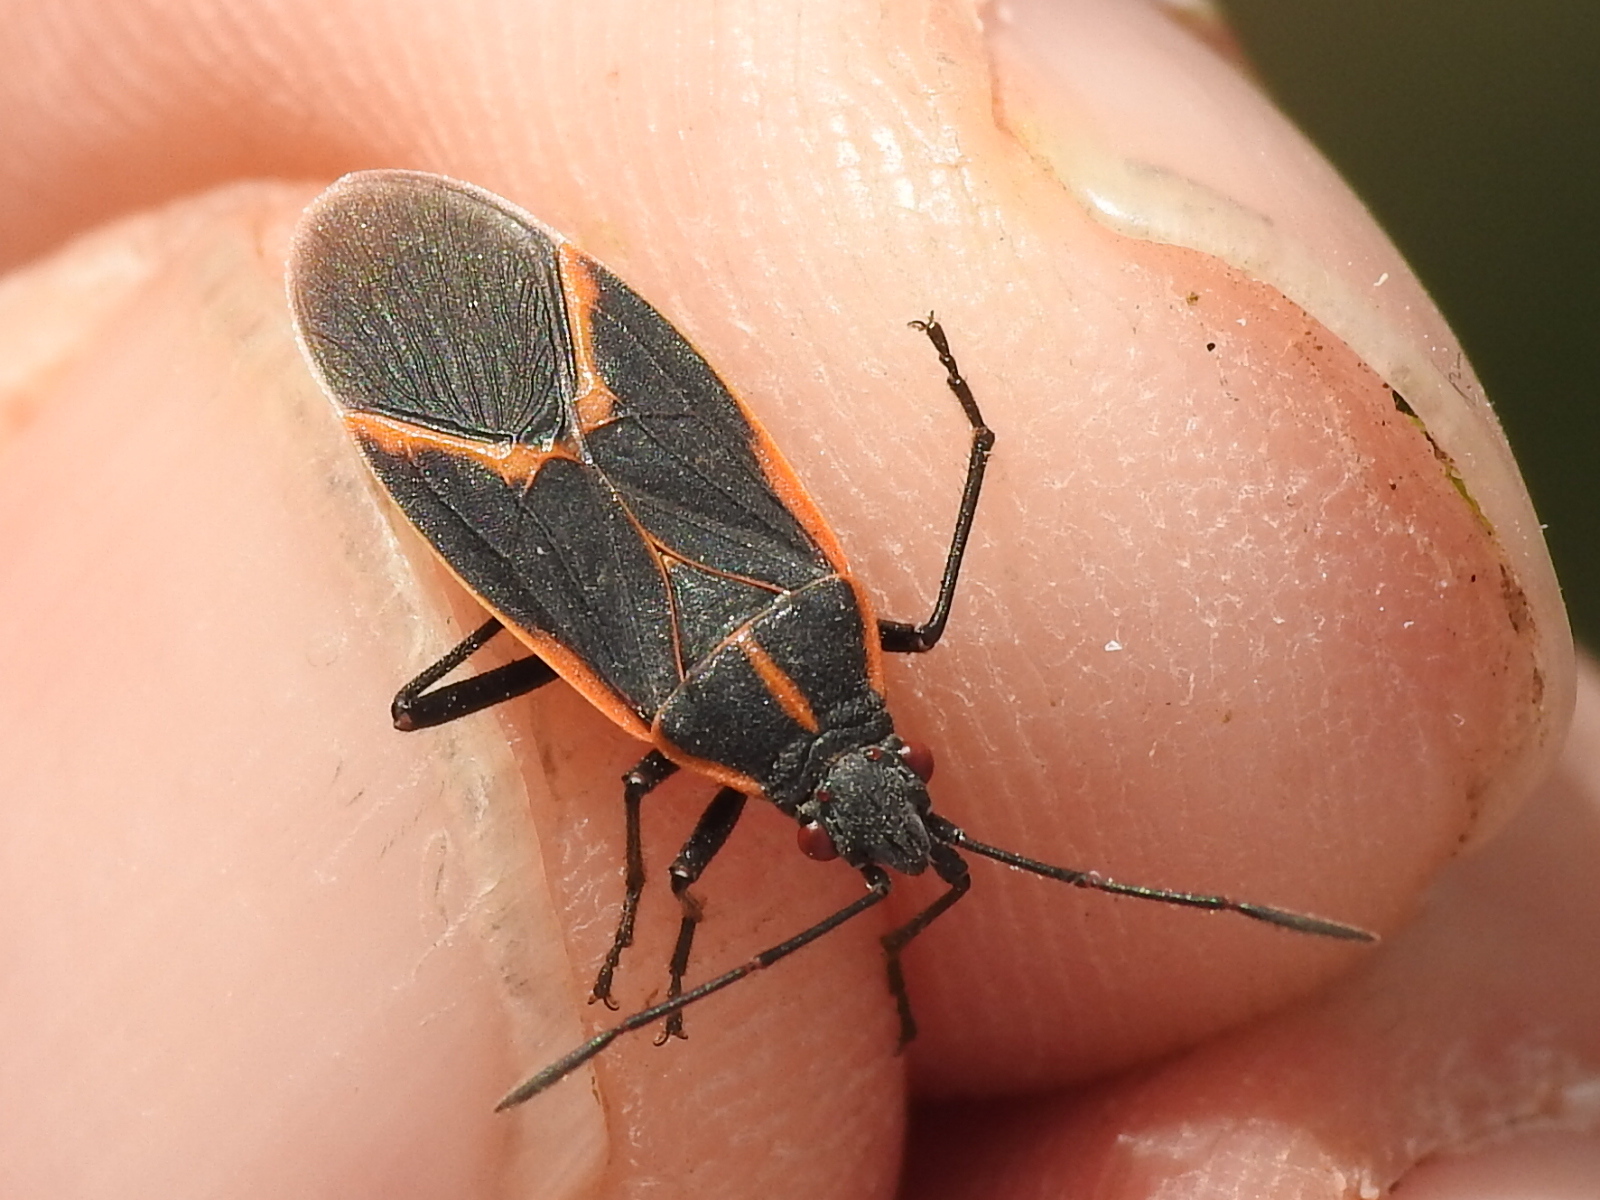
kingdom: Animalia
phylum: Arthropoda
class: Insecta
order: Hemiptera
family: Rhopalidae
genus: Boisea
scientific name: Boisea trivittata
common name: Boxelder bug
